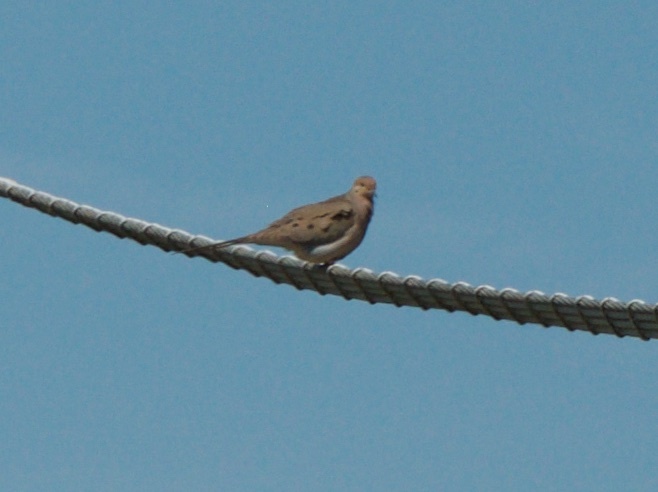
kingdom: Animalia
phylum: Chordata
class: Aves
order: Columbiformes
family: Columbidae
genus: Zenaida
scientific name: Zenaida macroura
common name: Mourning dove
